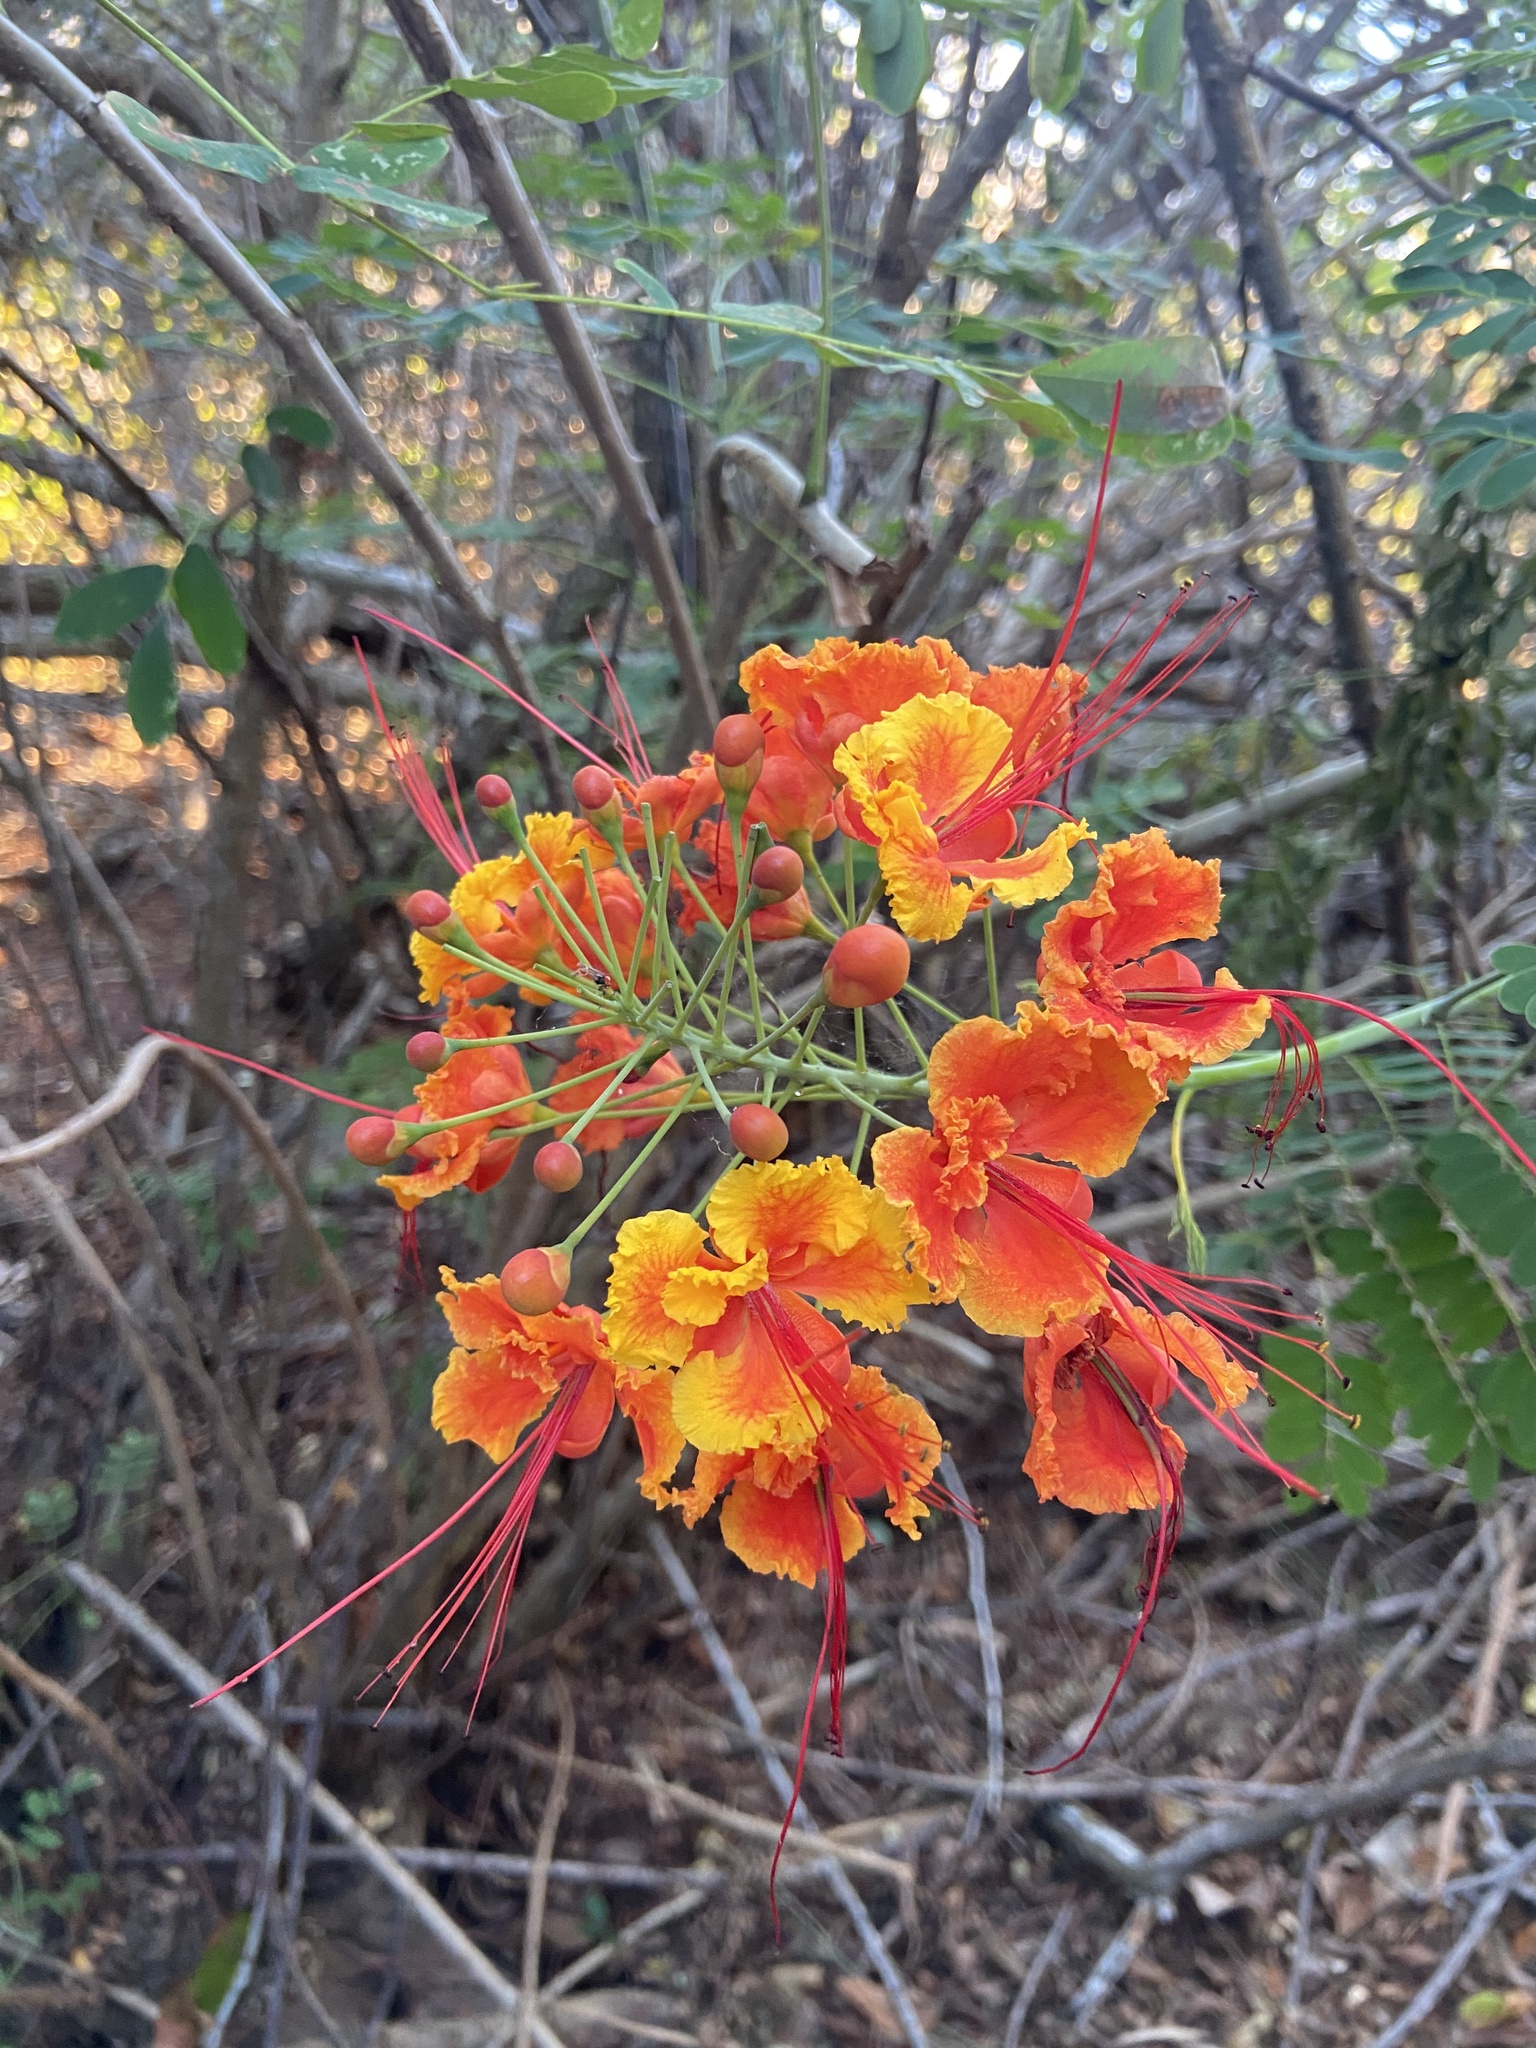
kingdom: Plantae
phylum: Tracheophyta
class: Magnoliopsida
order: Fabales
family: Fabaceae
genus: Caesalpinia
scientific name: Caesalpinia pulcherrima
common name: Pride-of-barbados
